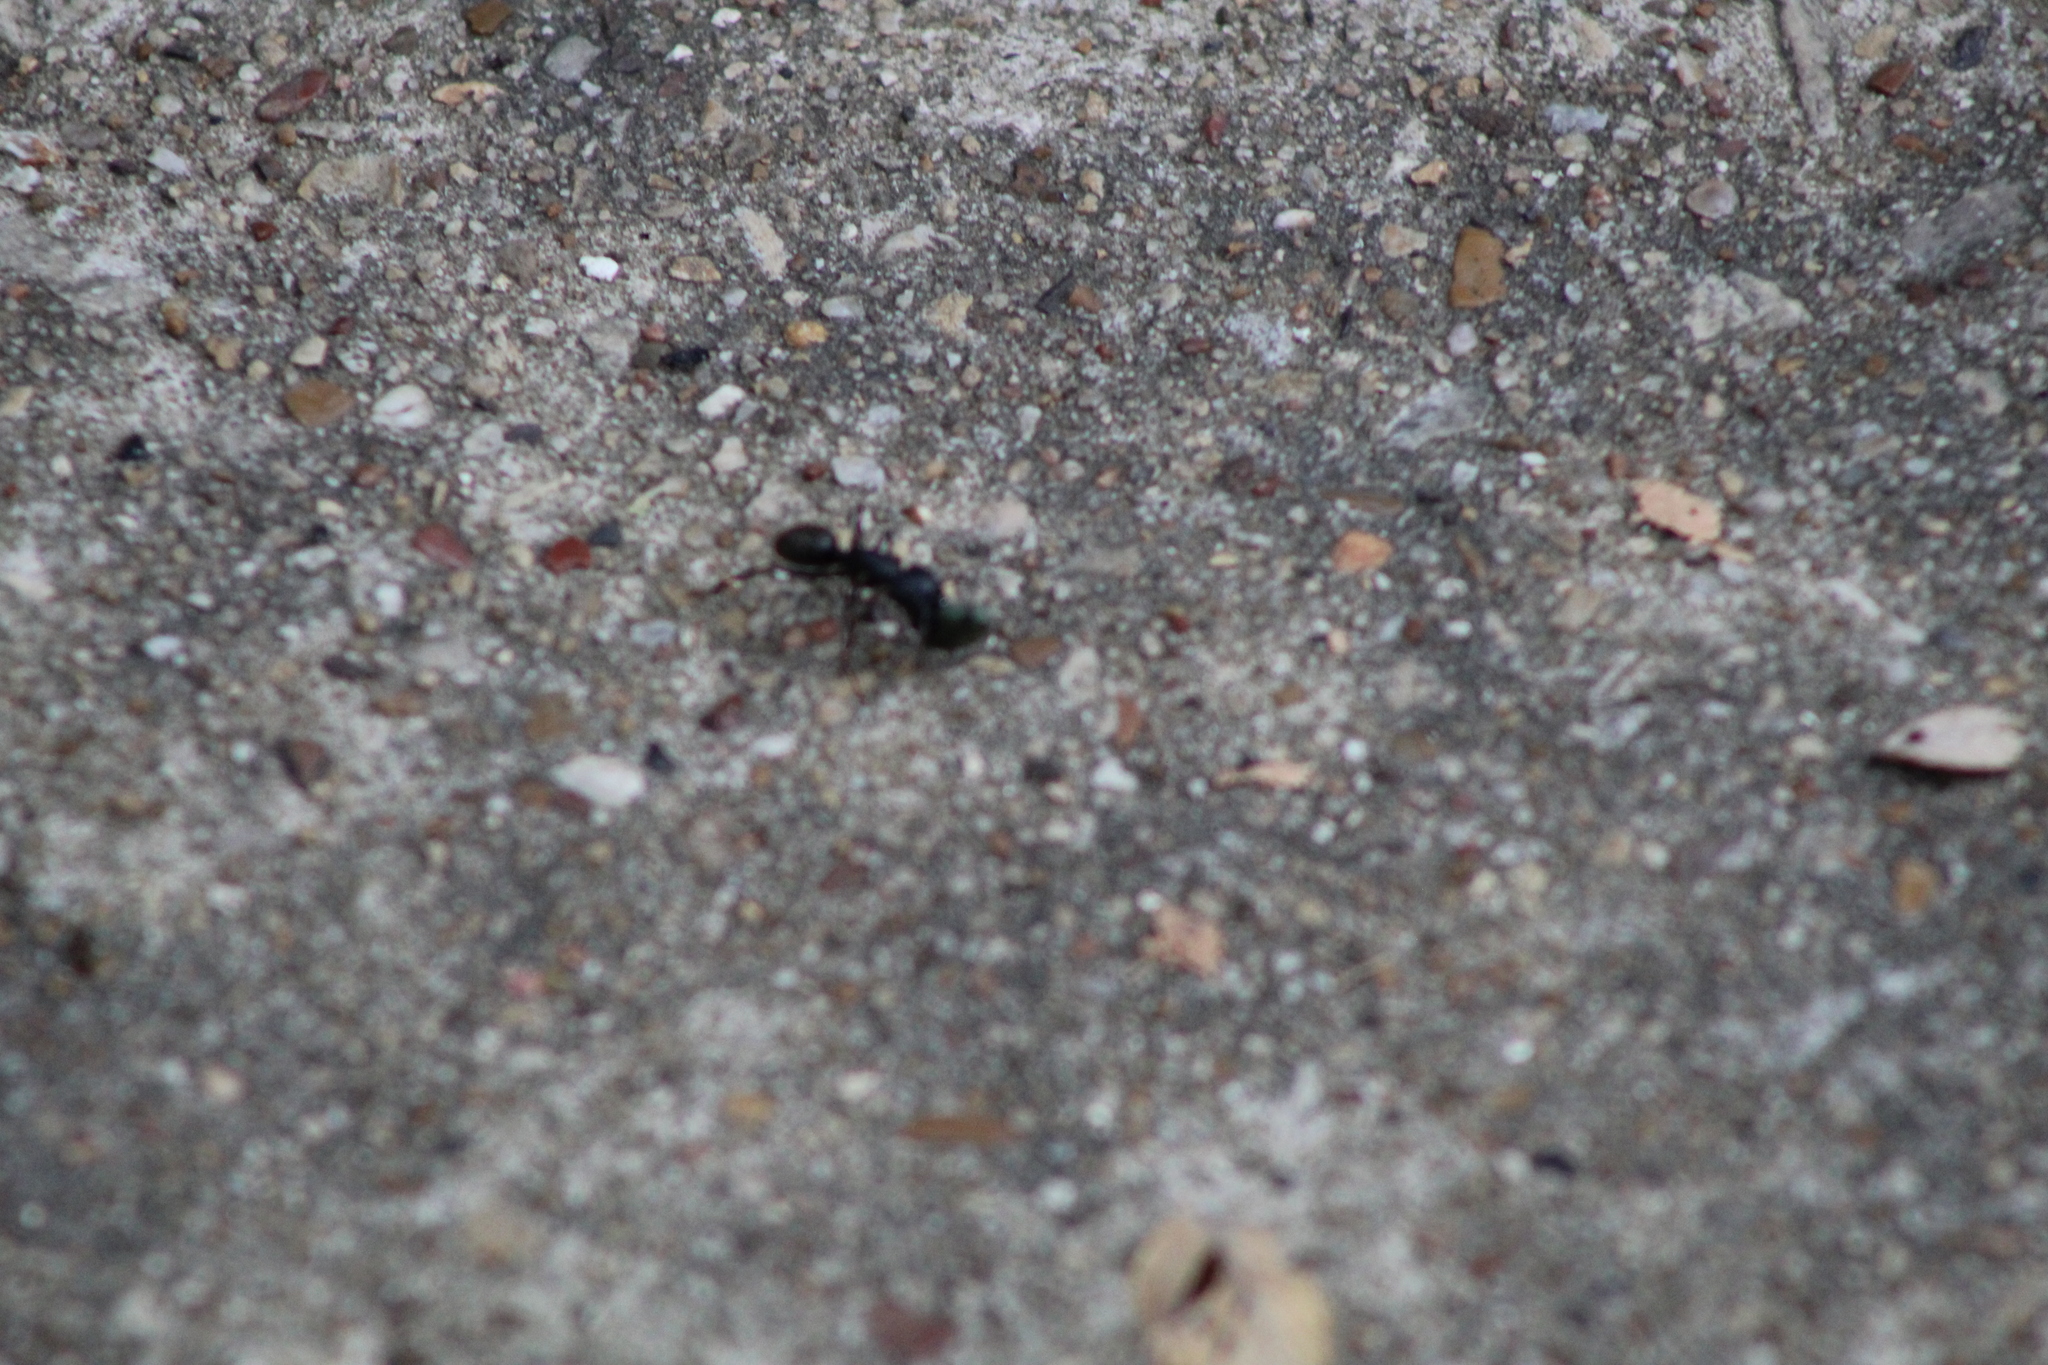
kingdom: Animalia
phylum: Arthropoda
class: Insecta
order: Hymenoptera
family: Formicidae
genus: Camponotus
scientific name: Camponotus pennsylvanicus
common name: Black carpenter ant
